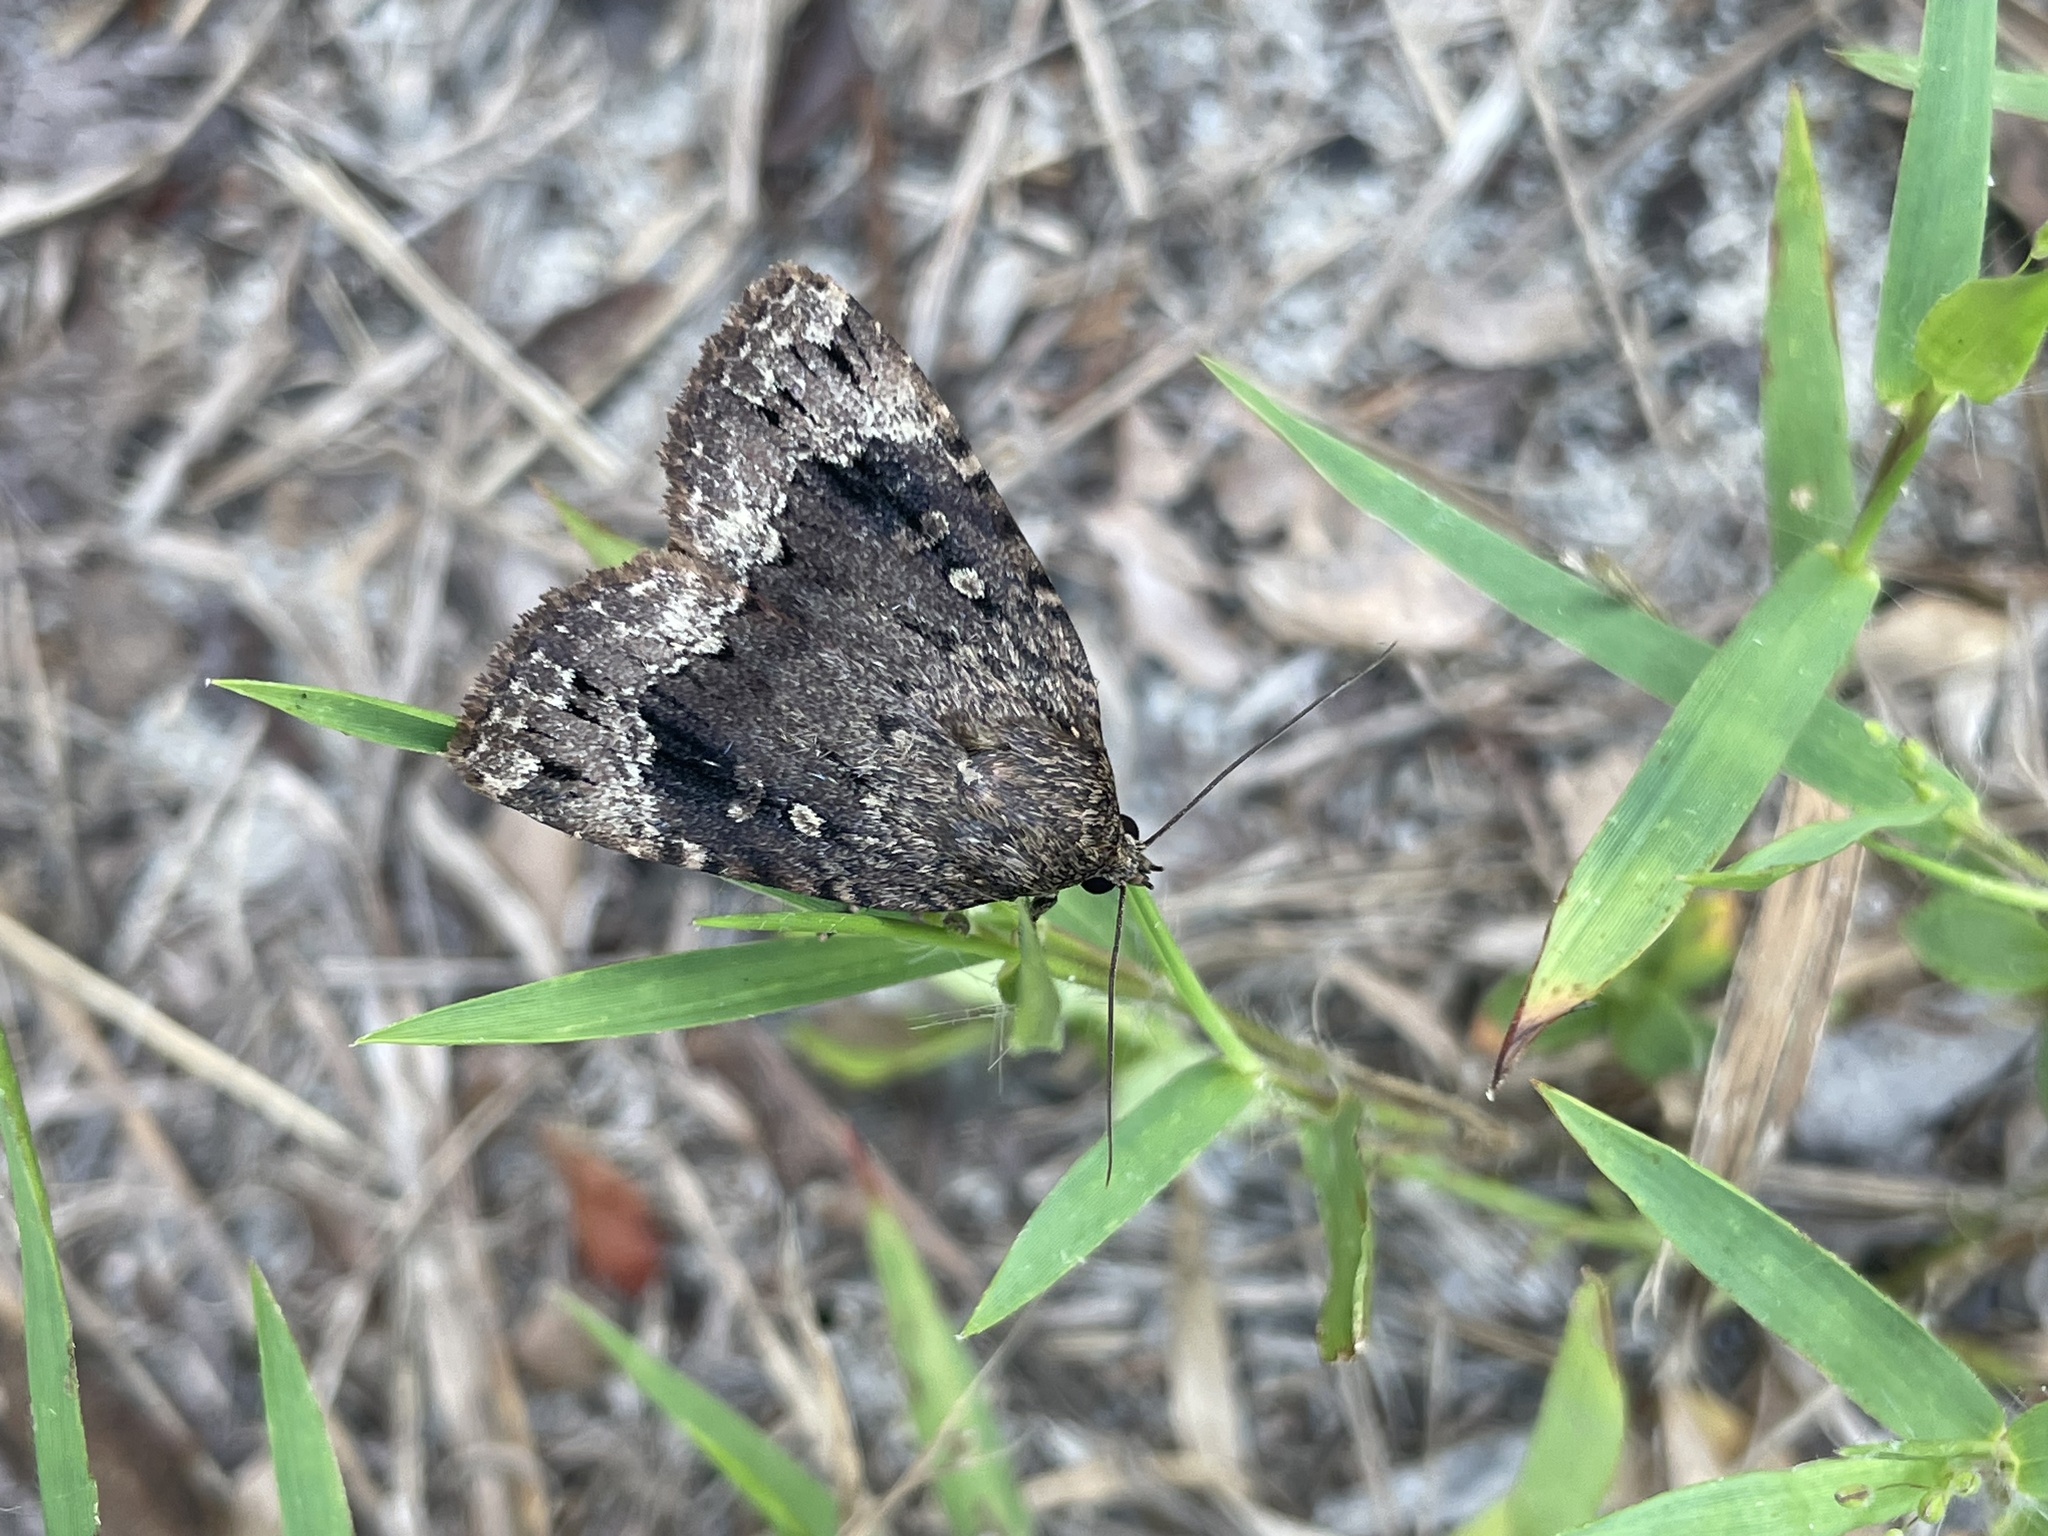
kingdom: Animalia
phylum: Arthropoda
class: Insecta
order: Lepidoptera
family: Noctuidae
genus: Amphipyra
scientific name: Amphipyra pyramidoides
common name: American copper underwing
